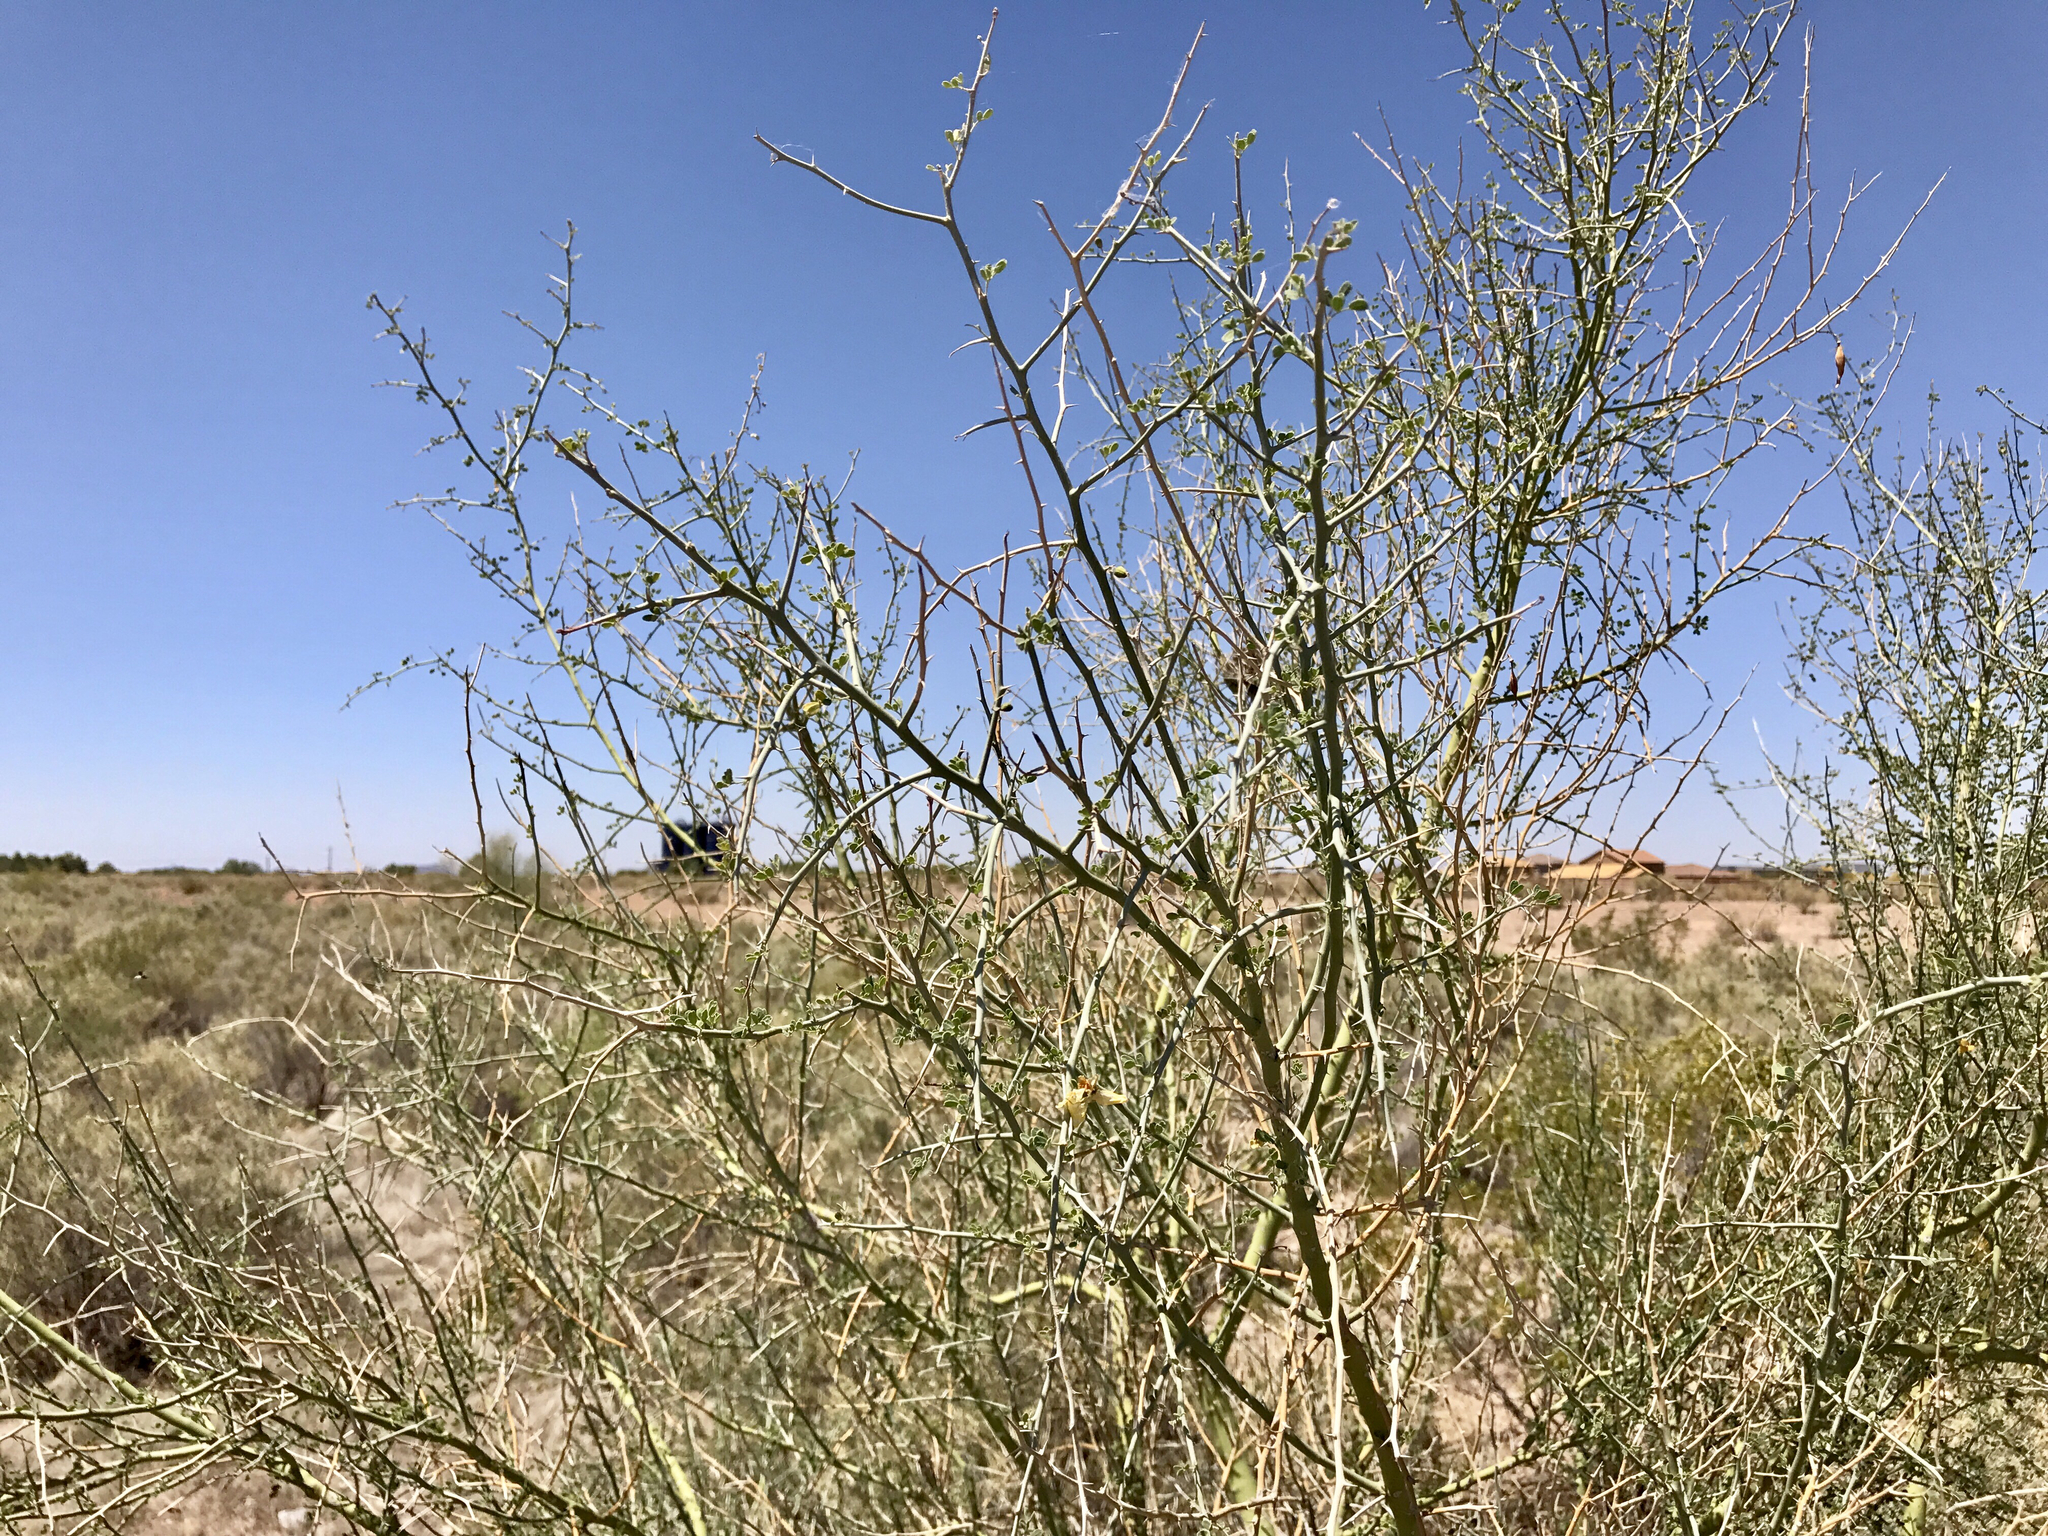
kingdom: Plantae
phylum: Tracheophyta
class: Magnoliopsida
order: Fabales
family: Fabaceae
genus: Parkinsonia
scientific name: Parkinsonia florida
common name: Blue paloverde
